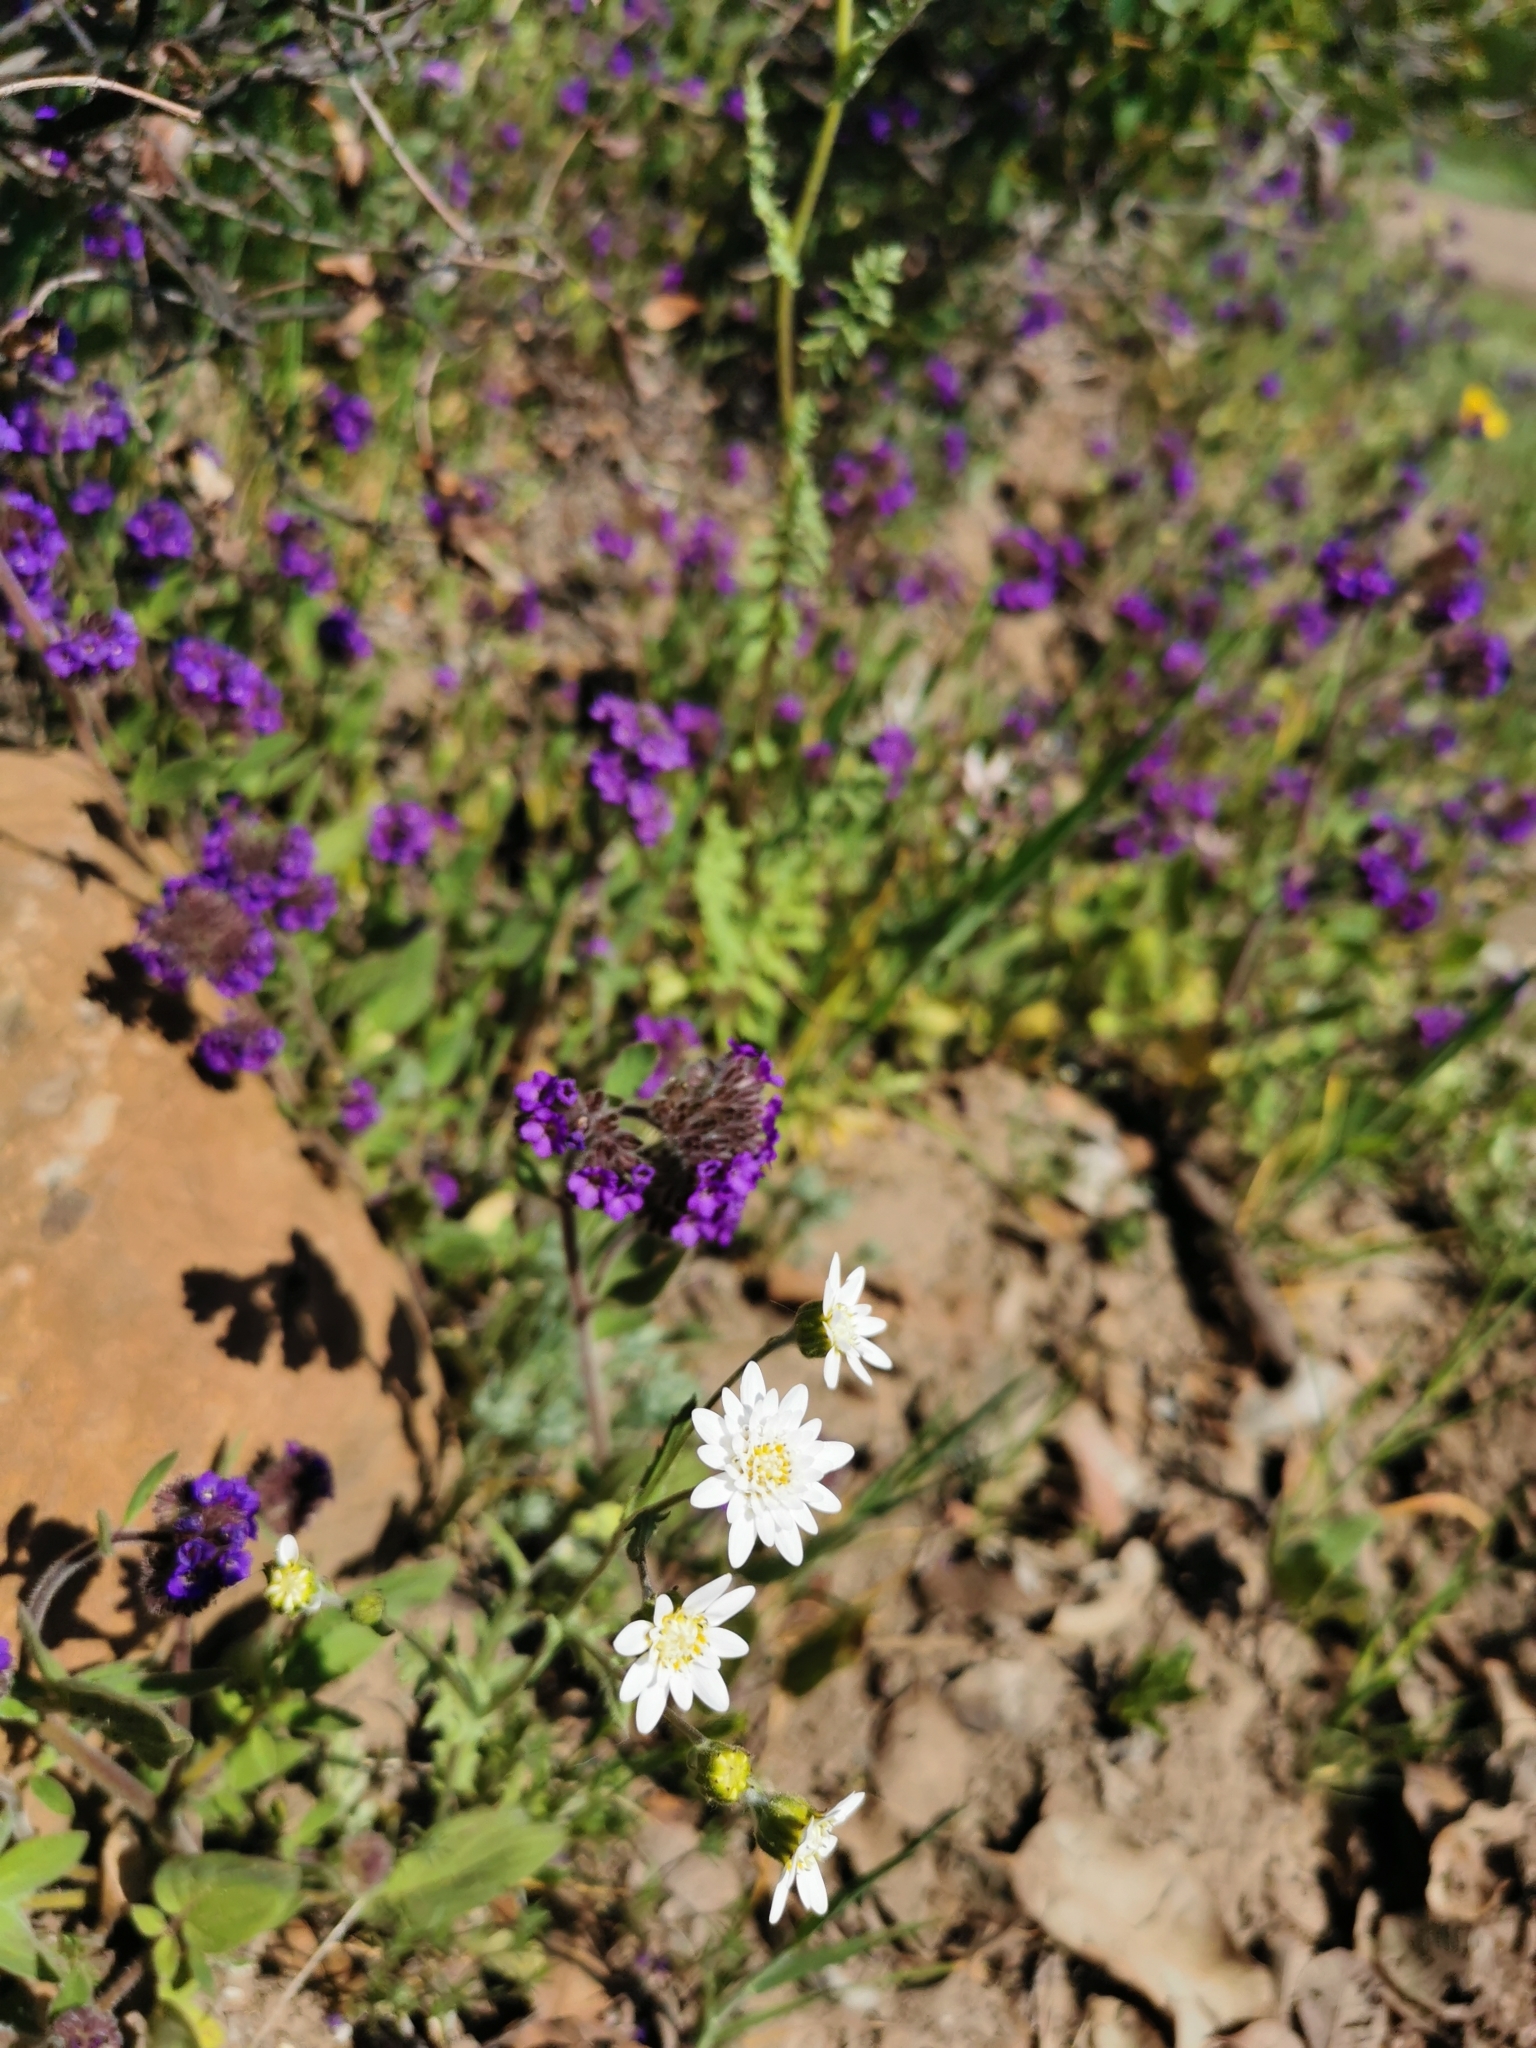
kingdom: Plantae
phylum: Tracheophyta
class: Magnoliopsida
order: Asterales
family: Asteraceae
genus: Leucheria
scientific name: Leucheria oligocephala
